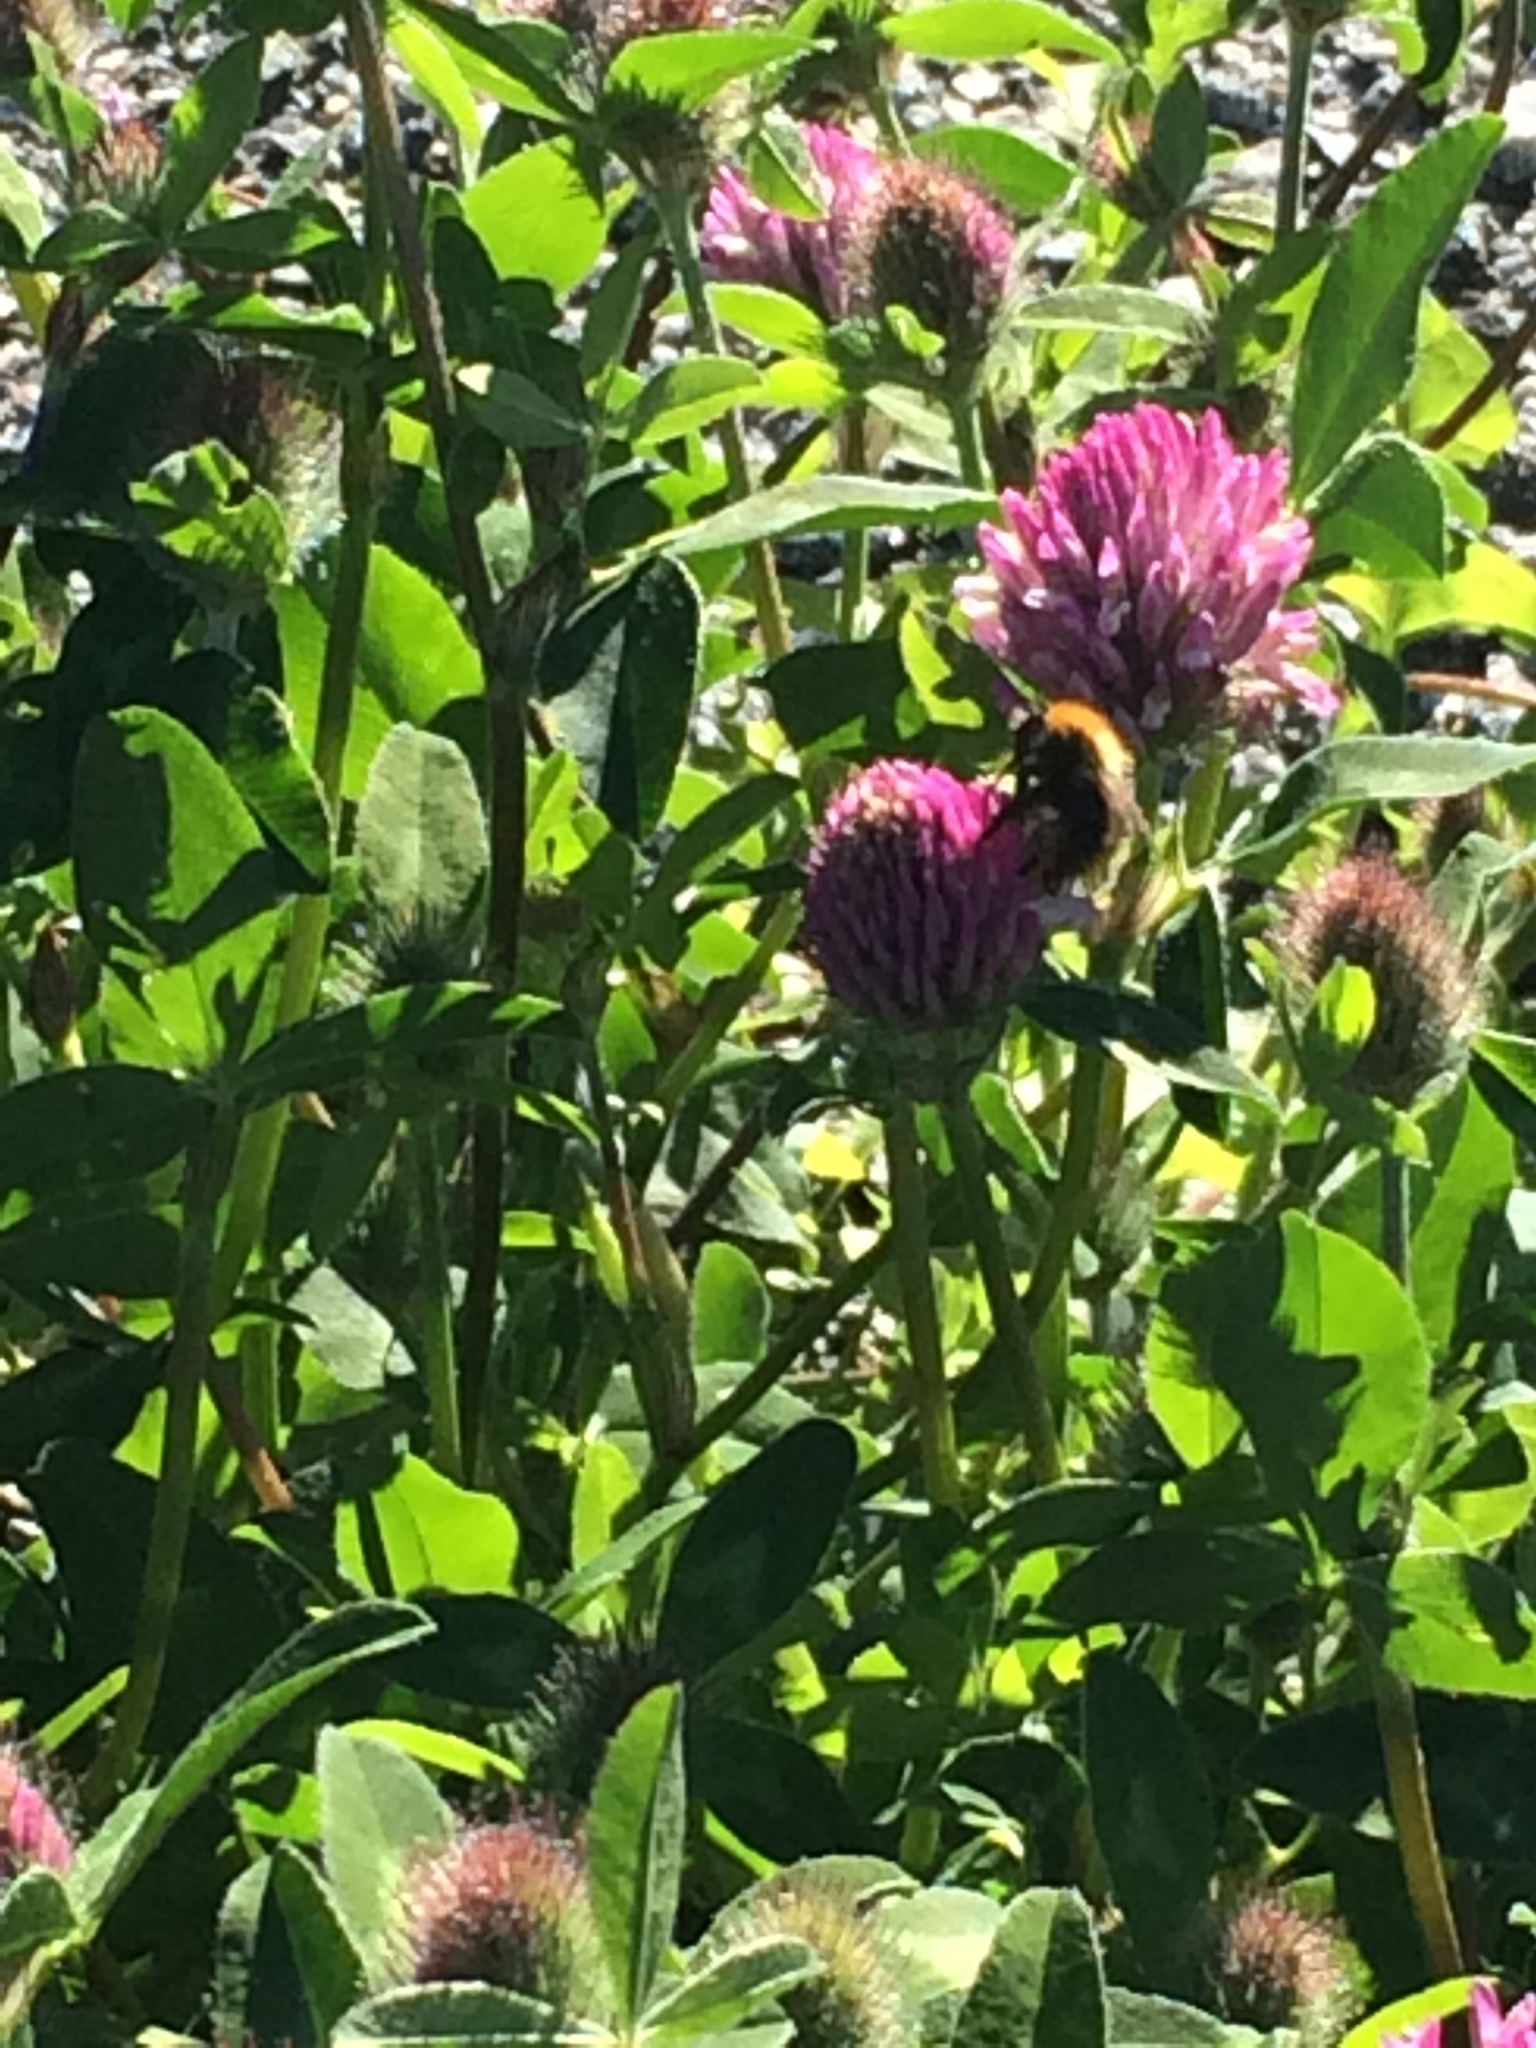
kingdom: Animalia
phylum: Arthropoda
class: Insecta
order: Hymenoptera
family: Apidae
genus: Bombus
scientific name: Bombus
